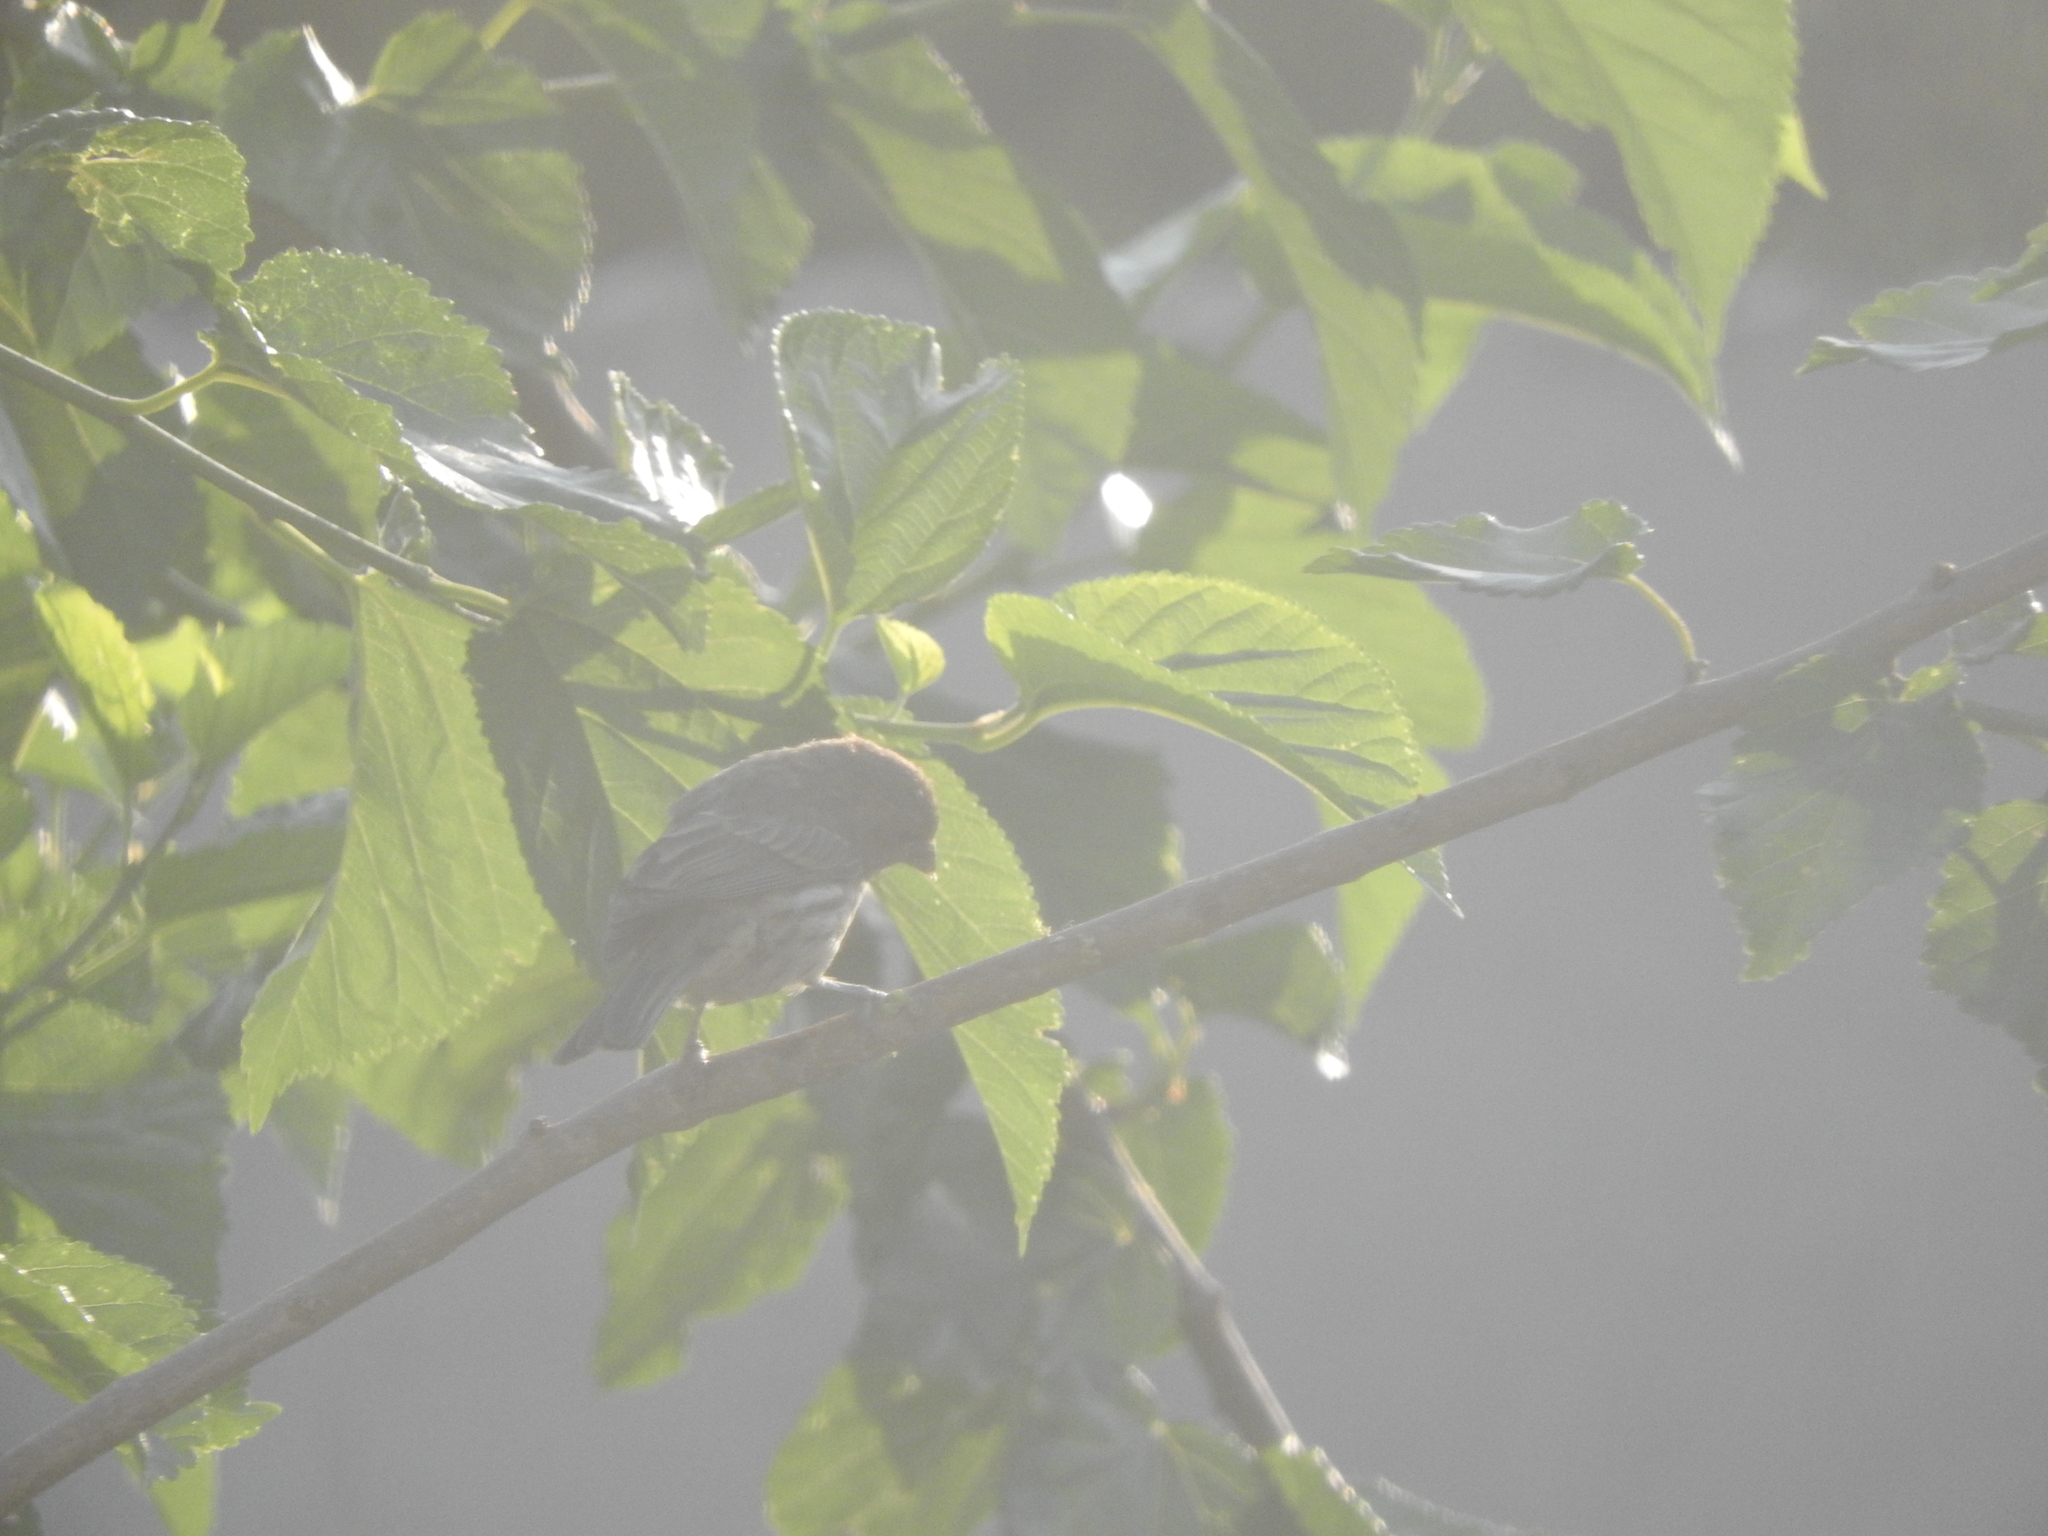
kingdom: Animalia
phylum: Chordata
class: Aves
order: Passeriformes
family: Fringillidae
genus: Haemorhous
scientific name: Haemorhous mexicanus
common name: House finch
